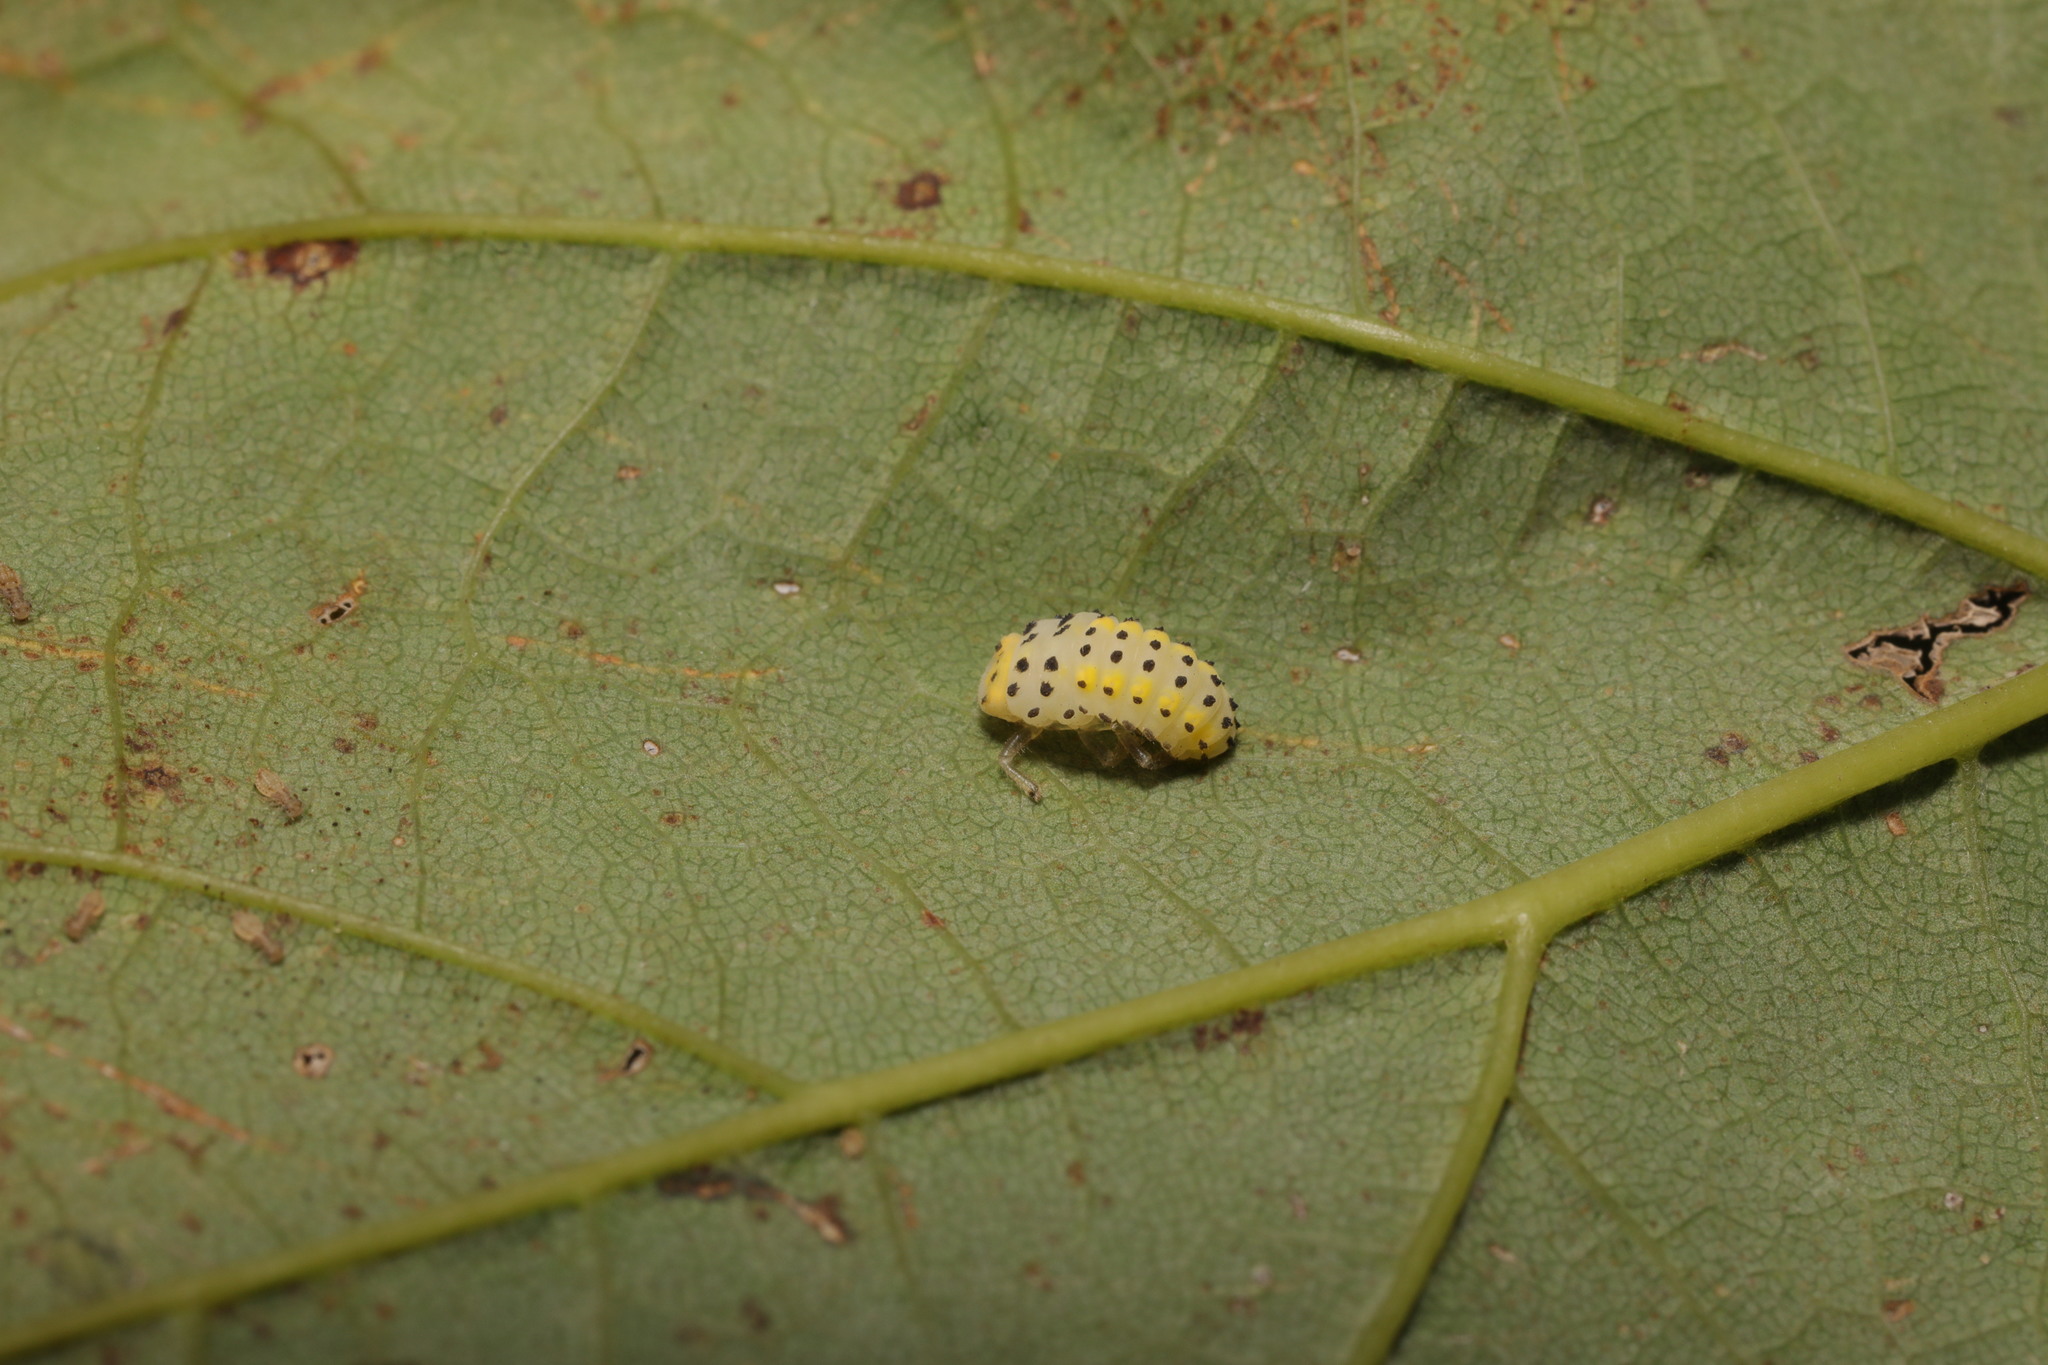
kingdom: Animalia
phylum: Arthropoda
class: Insecta
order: Coleoptera
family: Coccinellidae
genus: Halyzia
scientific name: Halyzia sedecimguttata
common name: Orange ladybird
